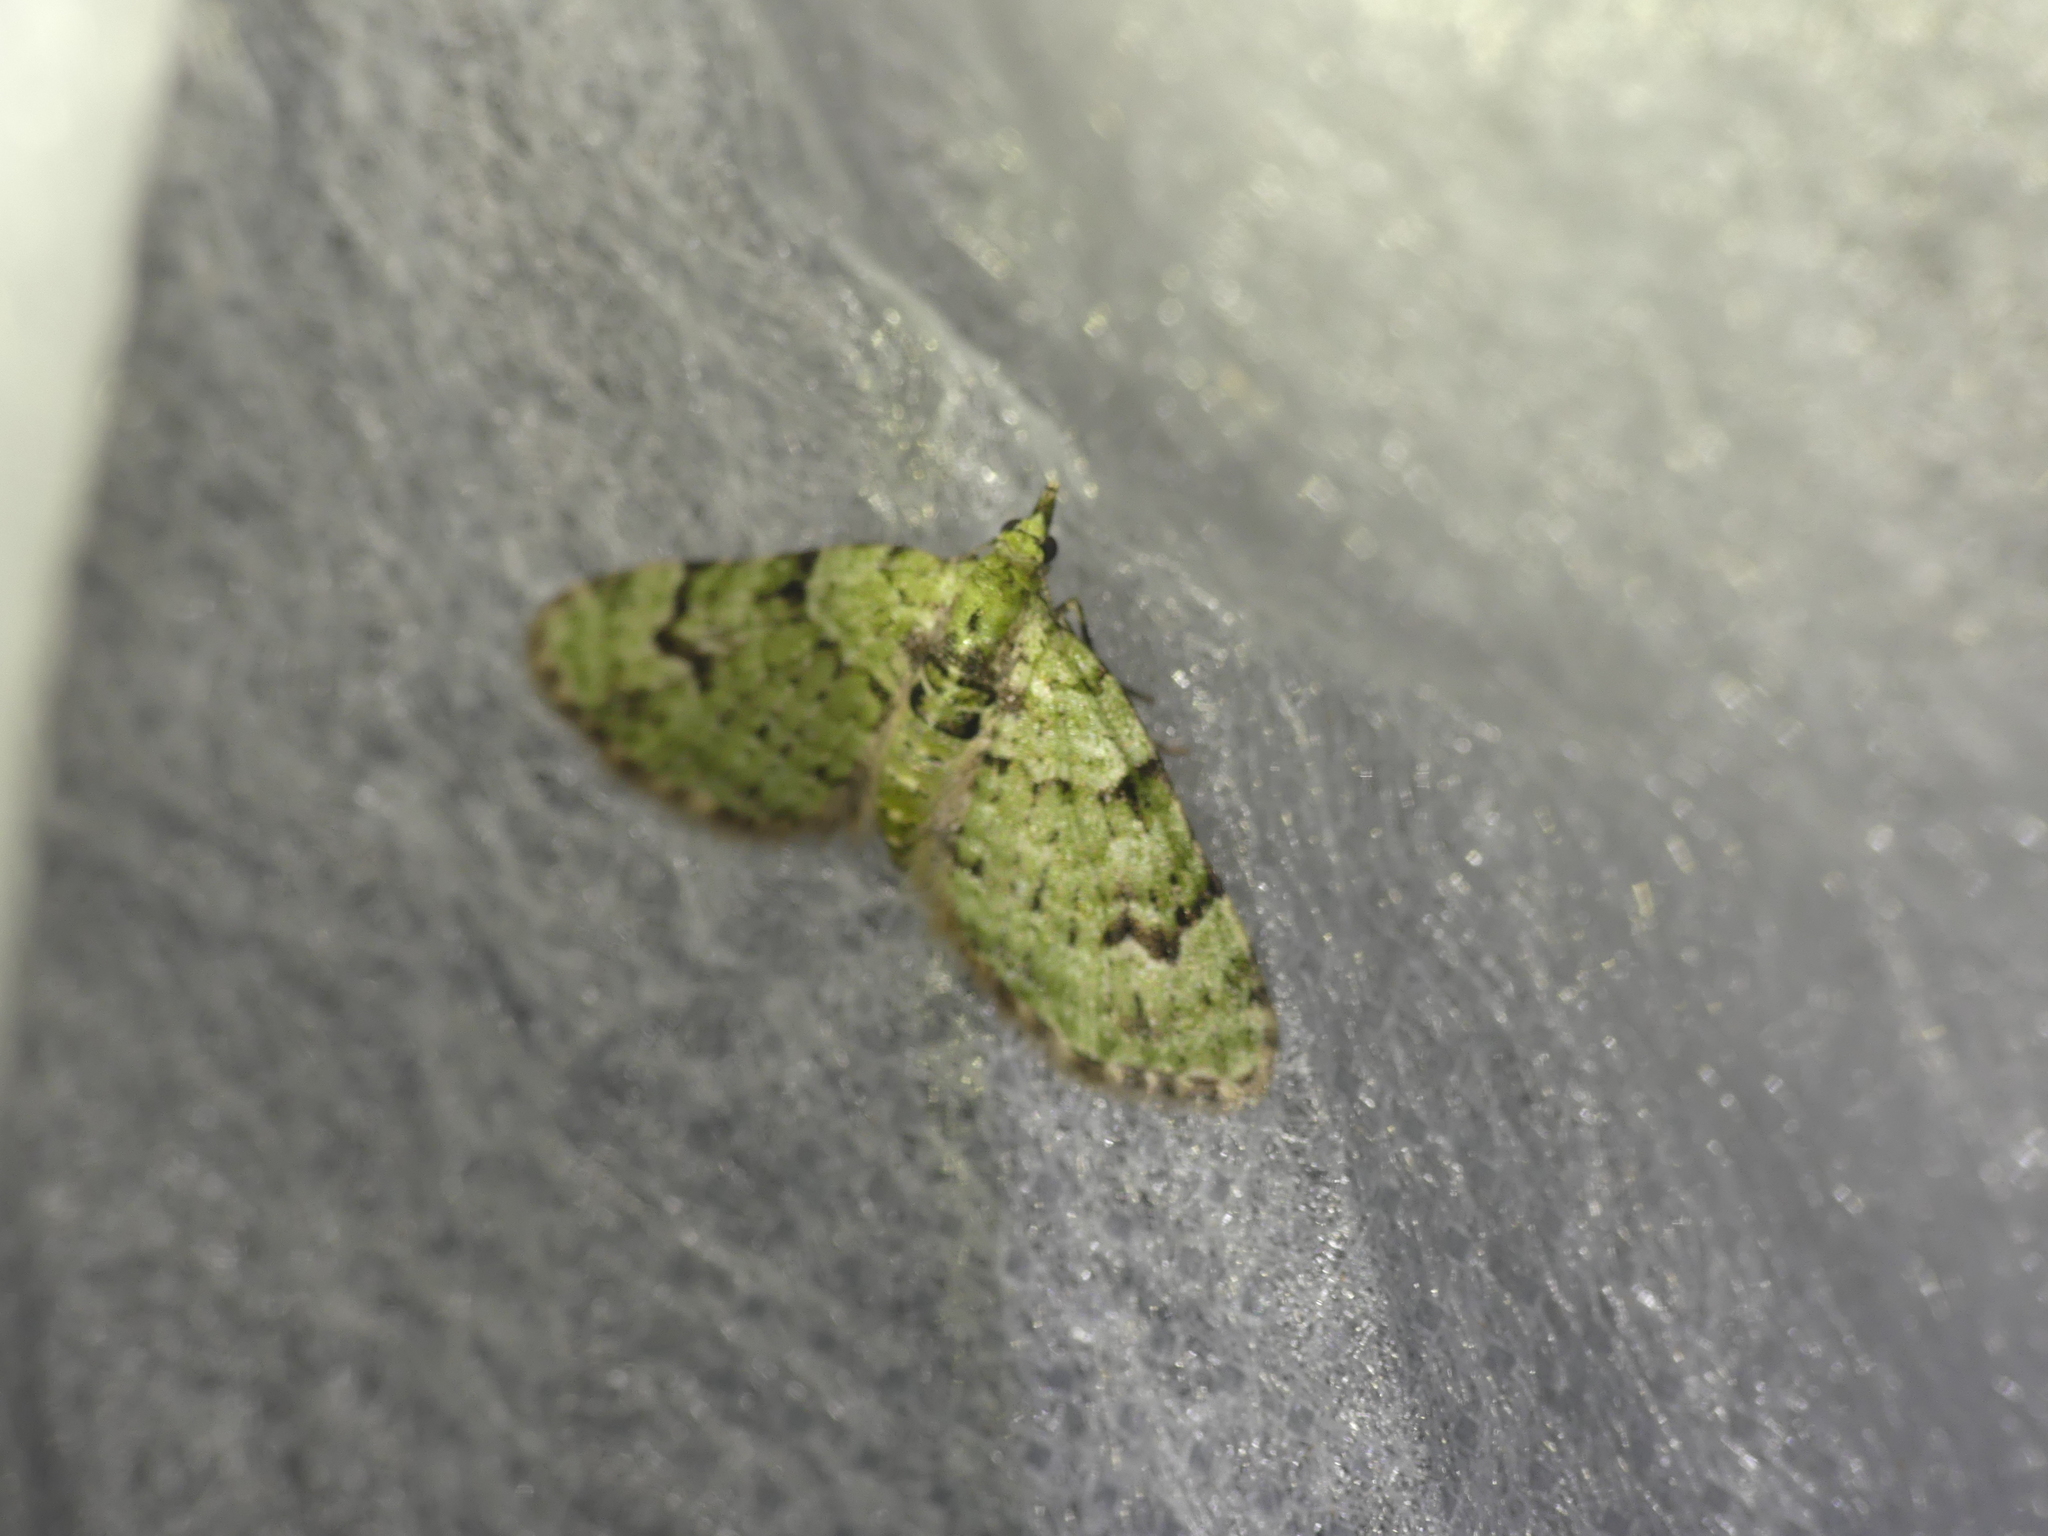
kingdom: Animalia
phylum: Arthropoda
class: Insecta
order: Lepidoptera
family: Geometridae
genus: Chloroclystis
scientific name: Chloroclystis v-ata
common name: V-pug
